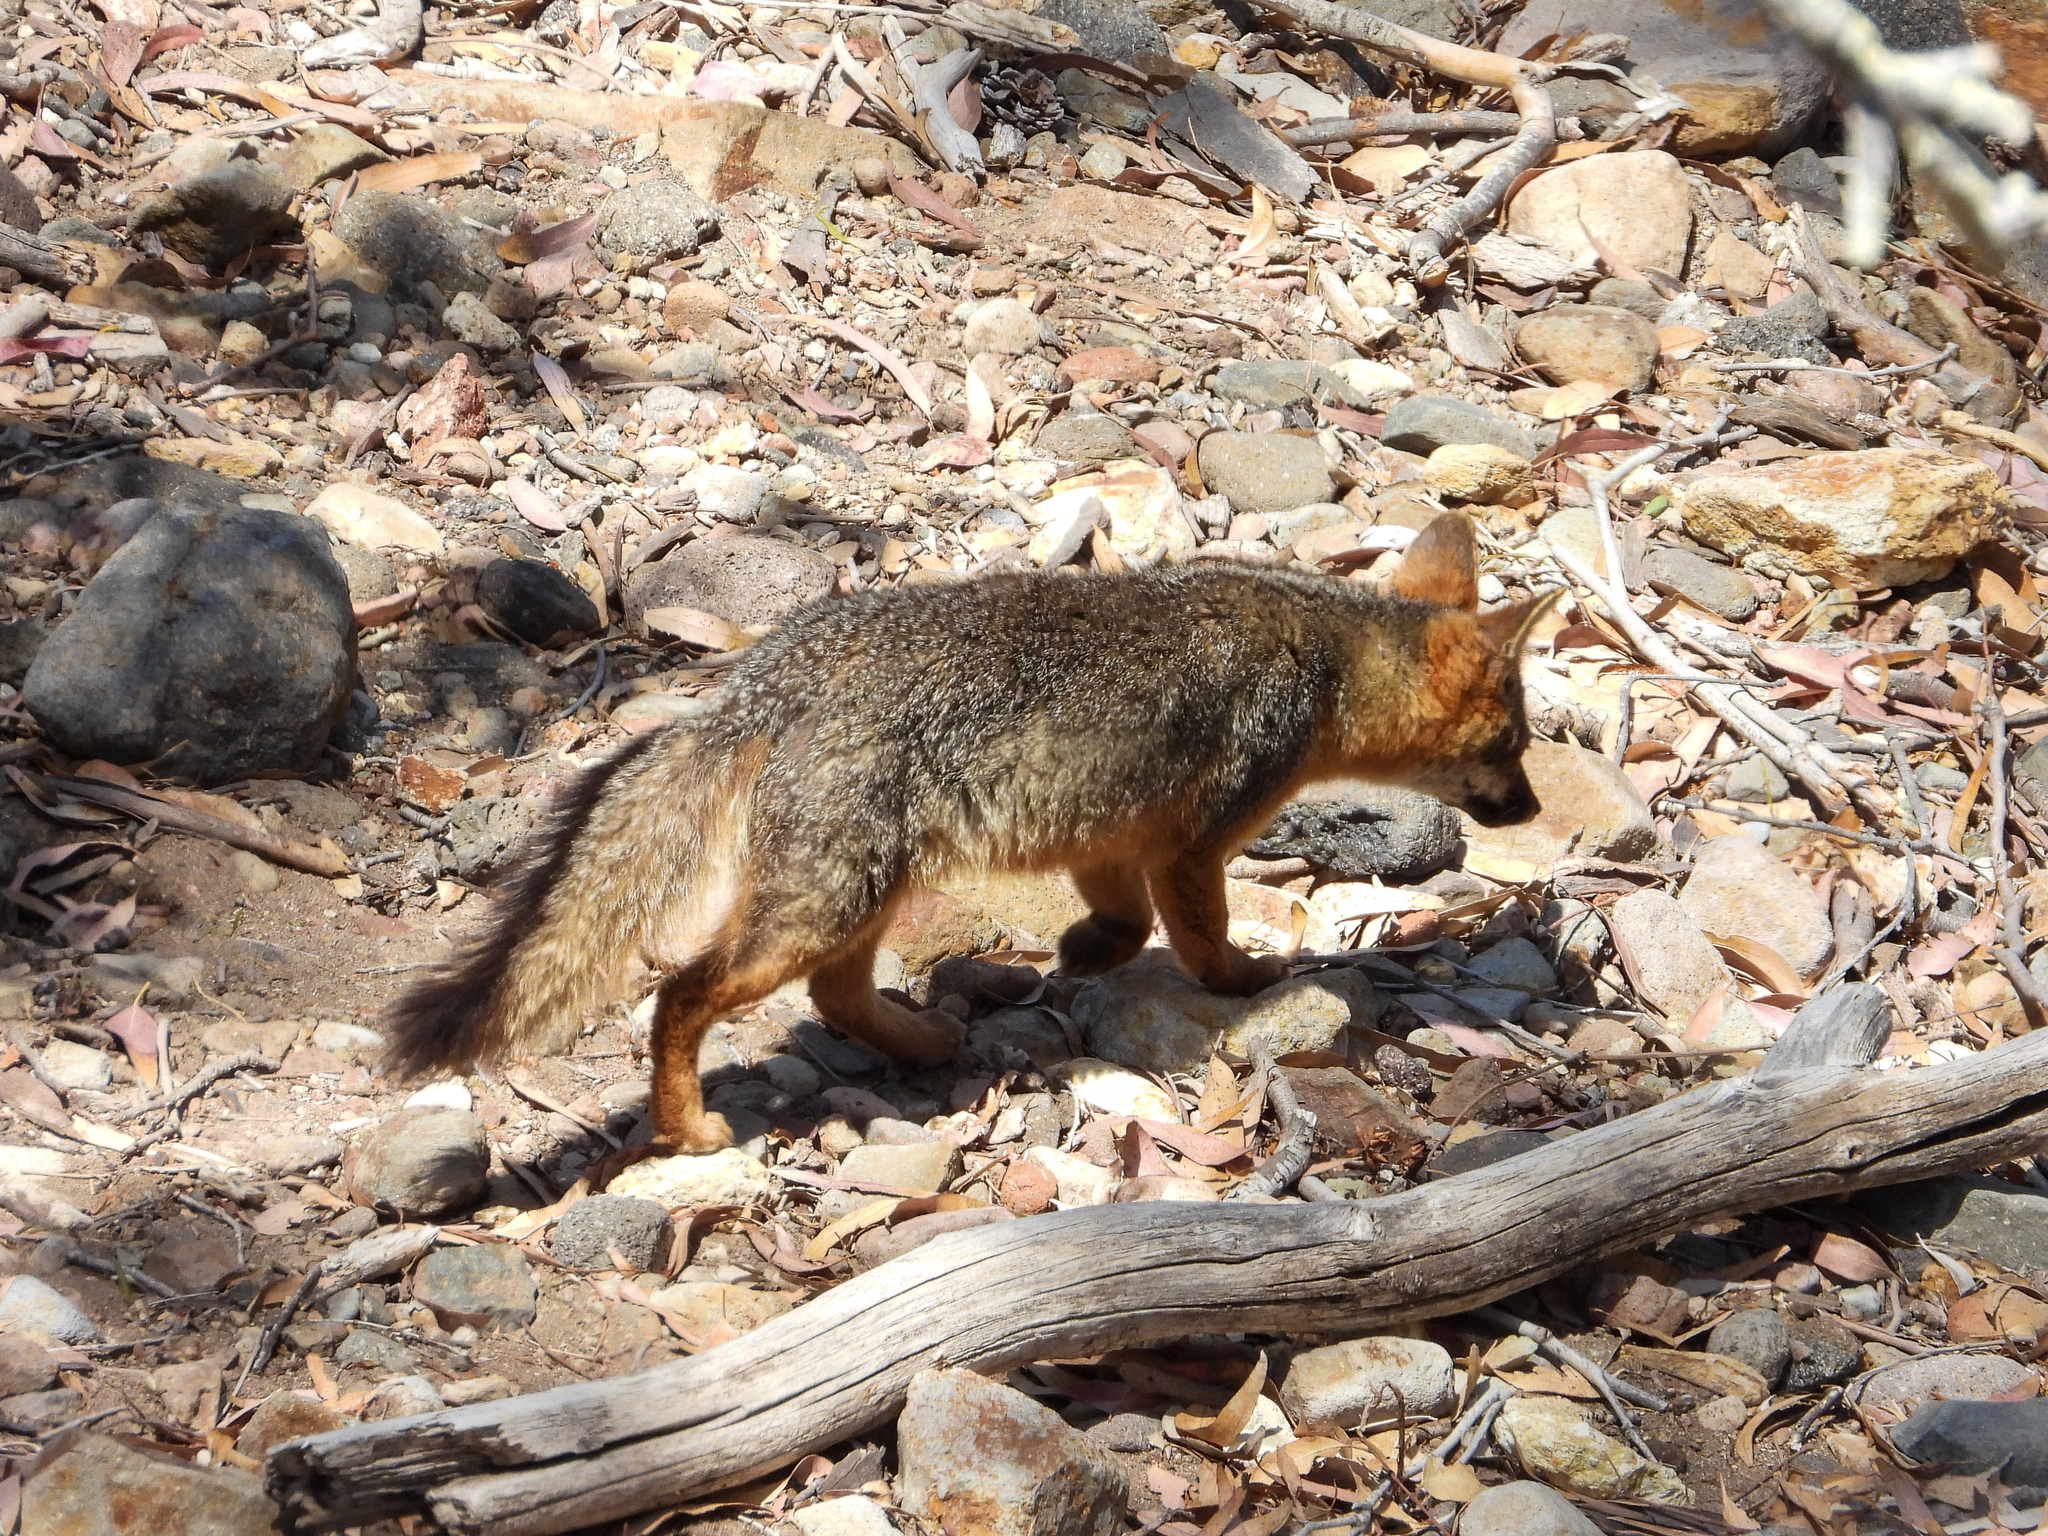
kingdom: Animalia
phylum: Chordata
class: Mammalia
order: Carnivora
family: Canidae
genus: Urocyon
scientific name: Urocyon littoralis
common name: Island gray fox
